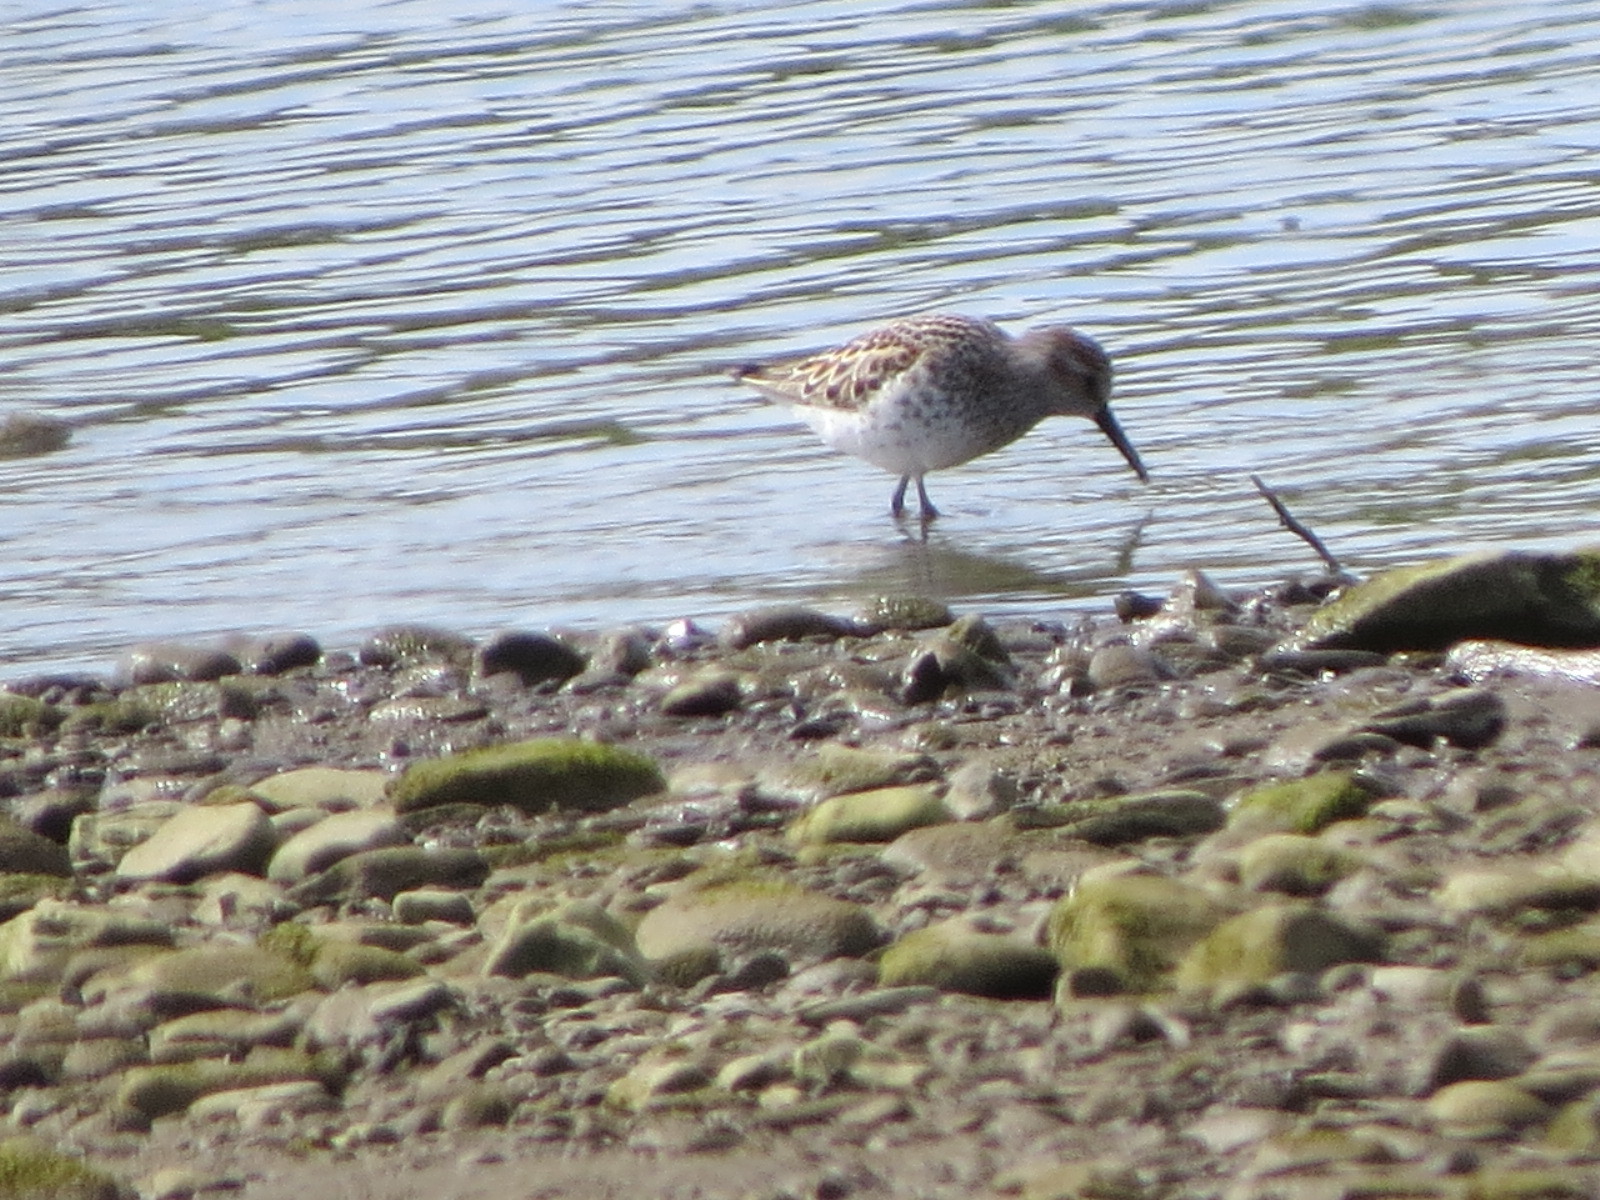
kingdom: Animalia
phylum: Chordata
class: Aves
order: Charadriiformes
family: Scolopacidae
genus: Calidris
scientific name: Calidris mauri
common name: Western sandpiper
